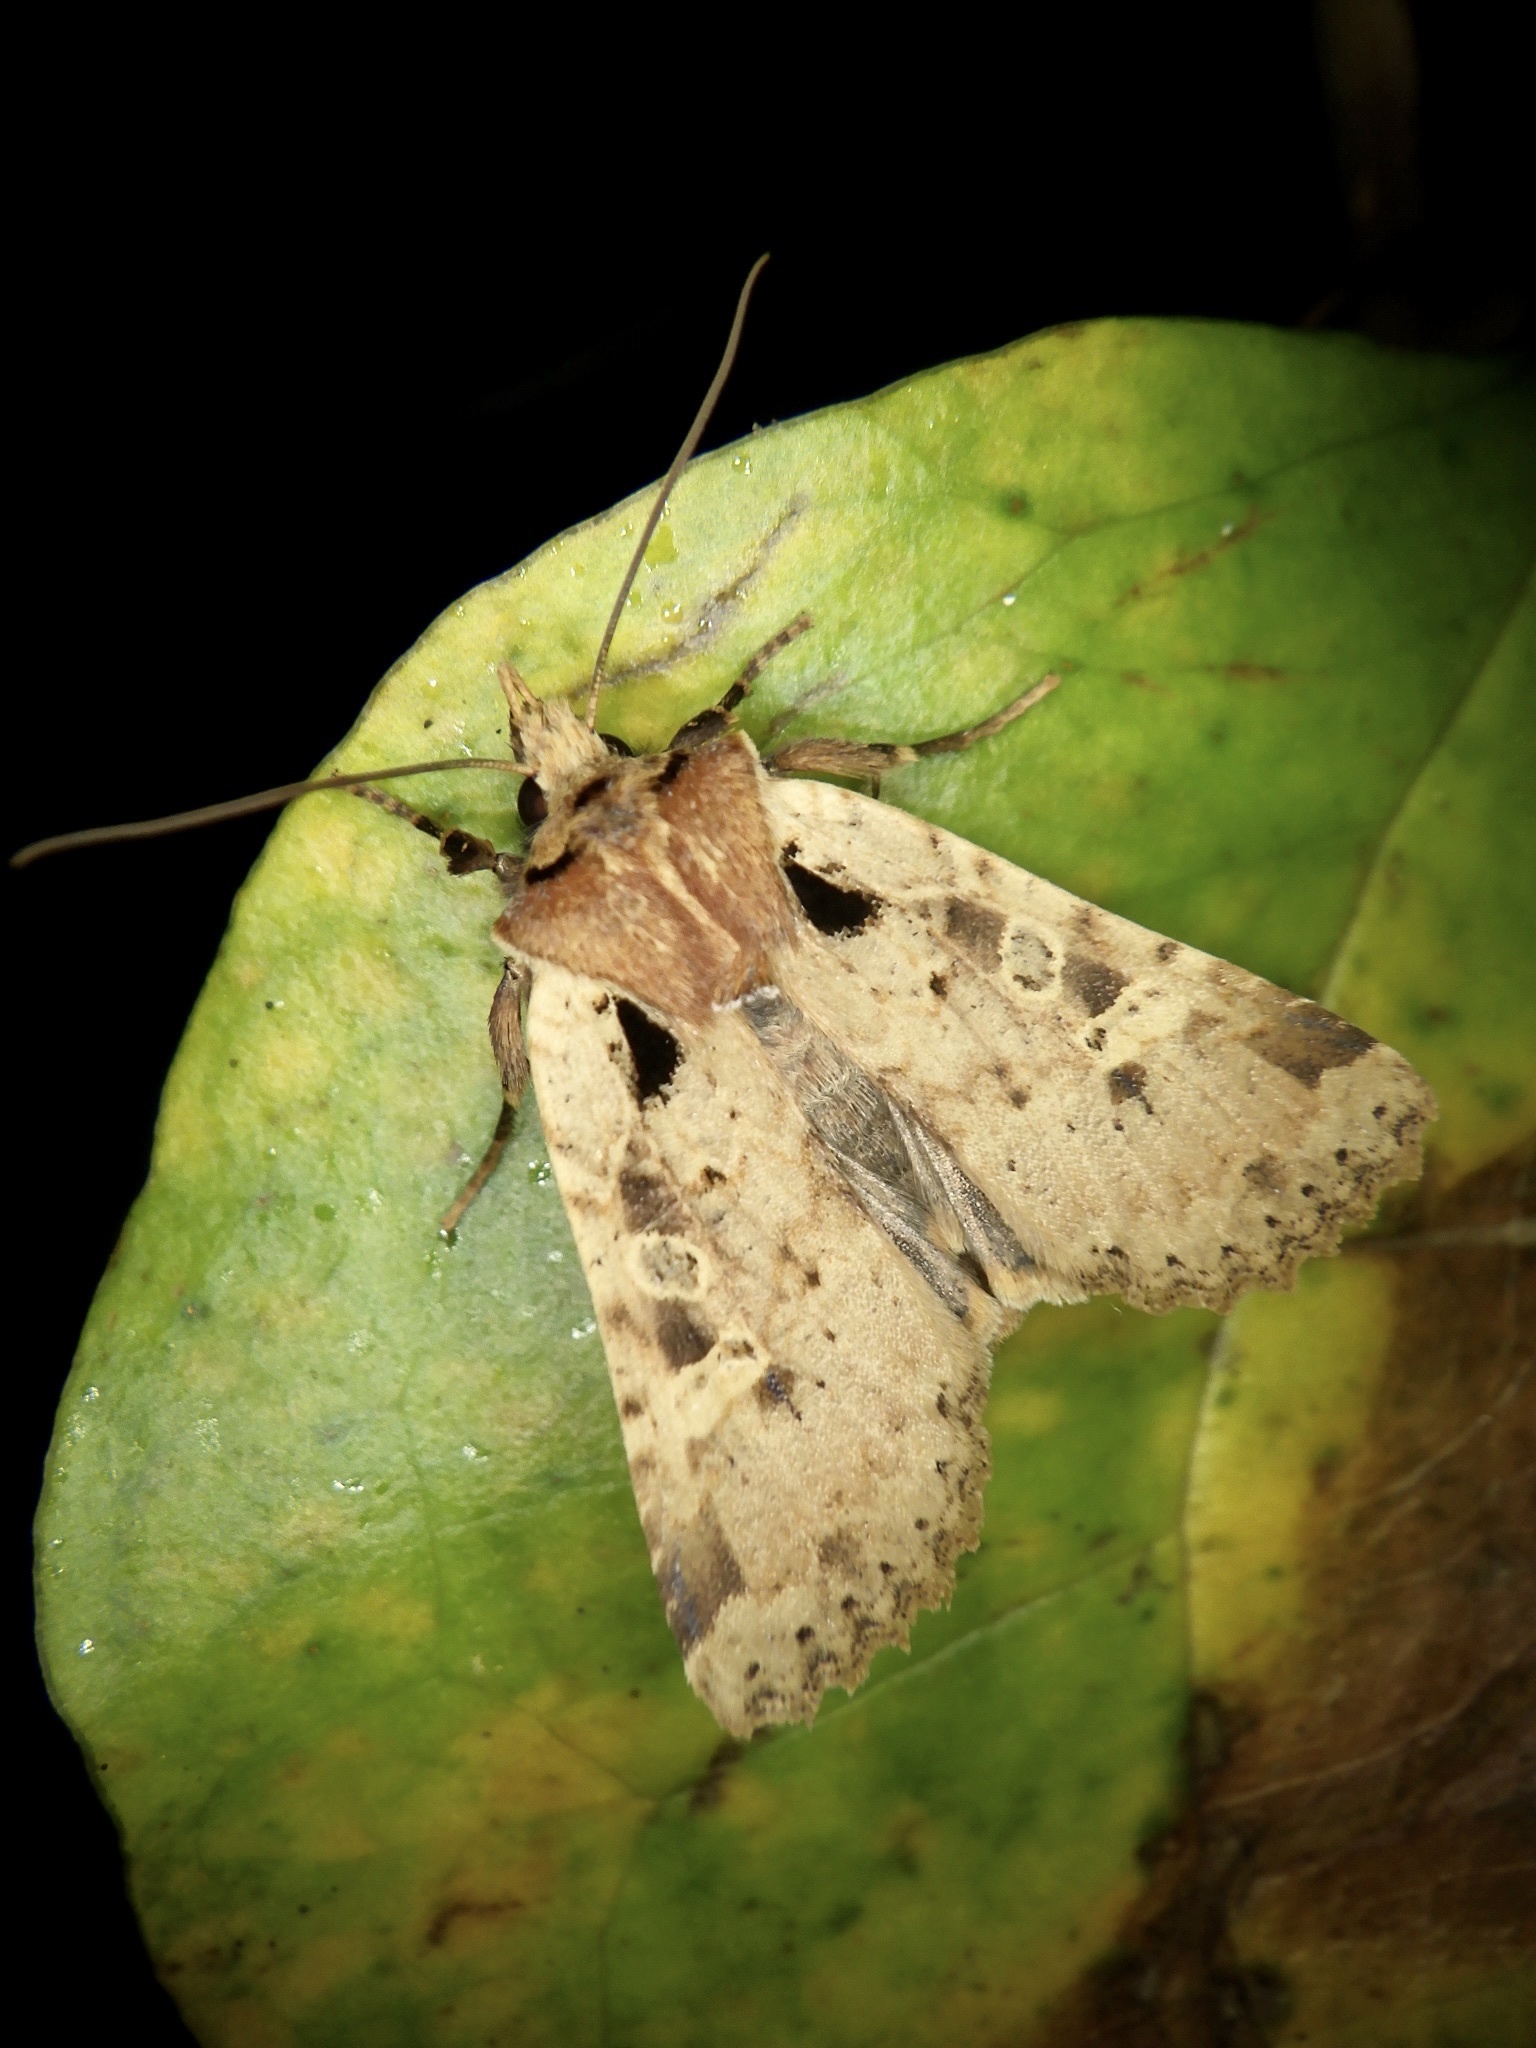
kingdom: Animalia
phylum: Arthropoda
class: Insecta
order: Lepidoptera
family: Noctuidae
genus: Rhynchaglaea
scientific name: Rhynchaglaea scitula
